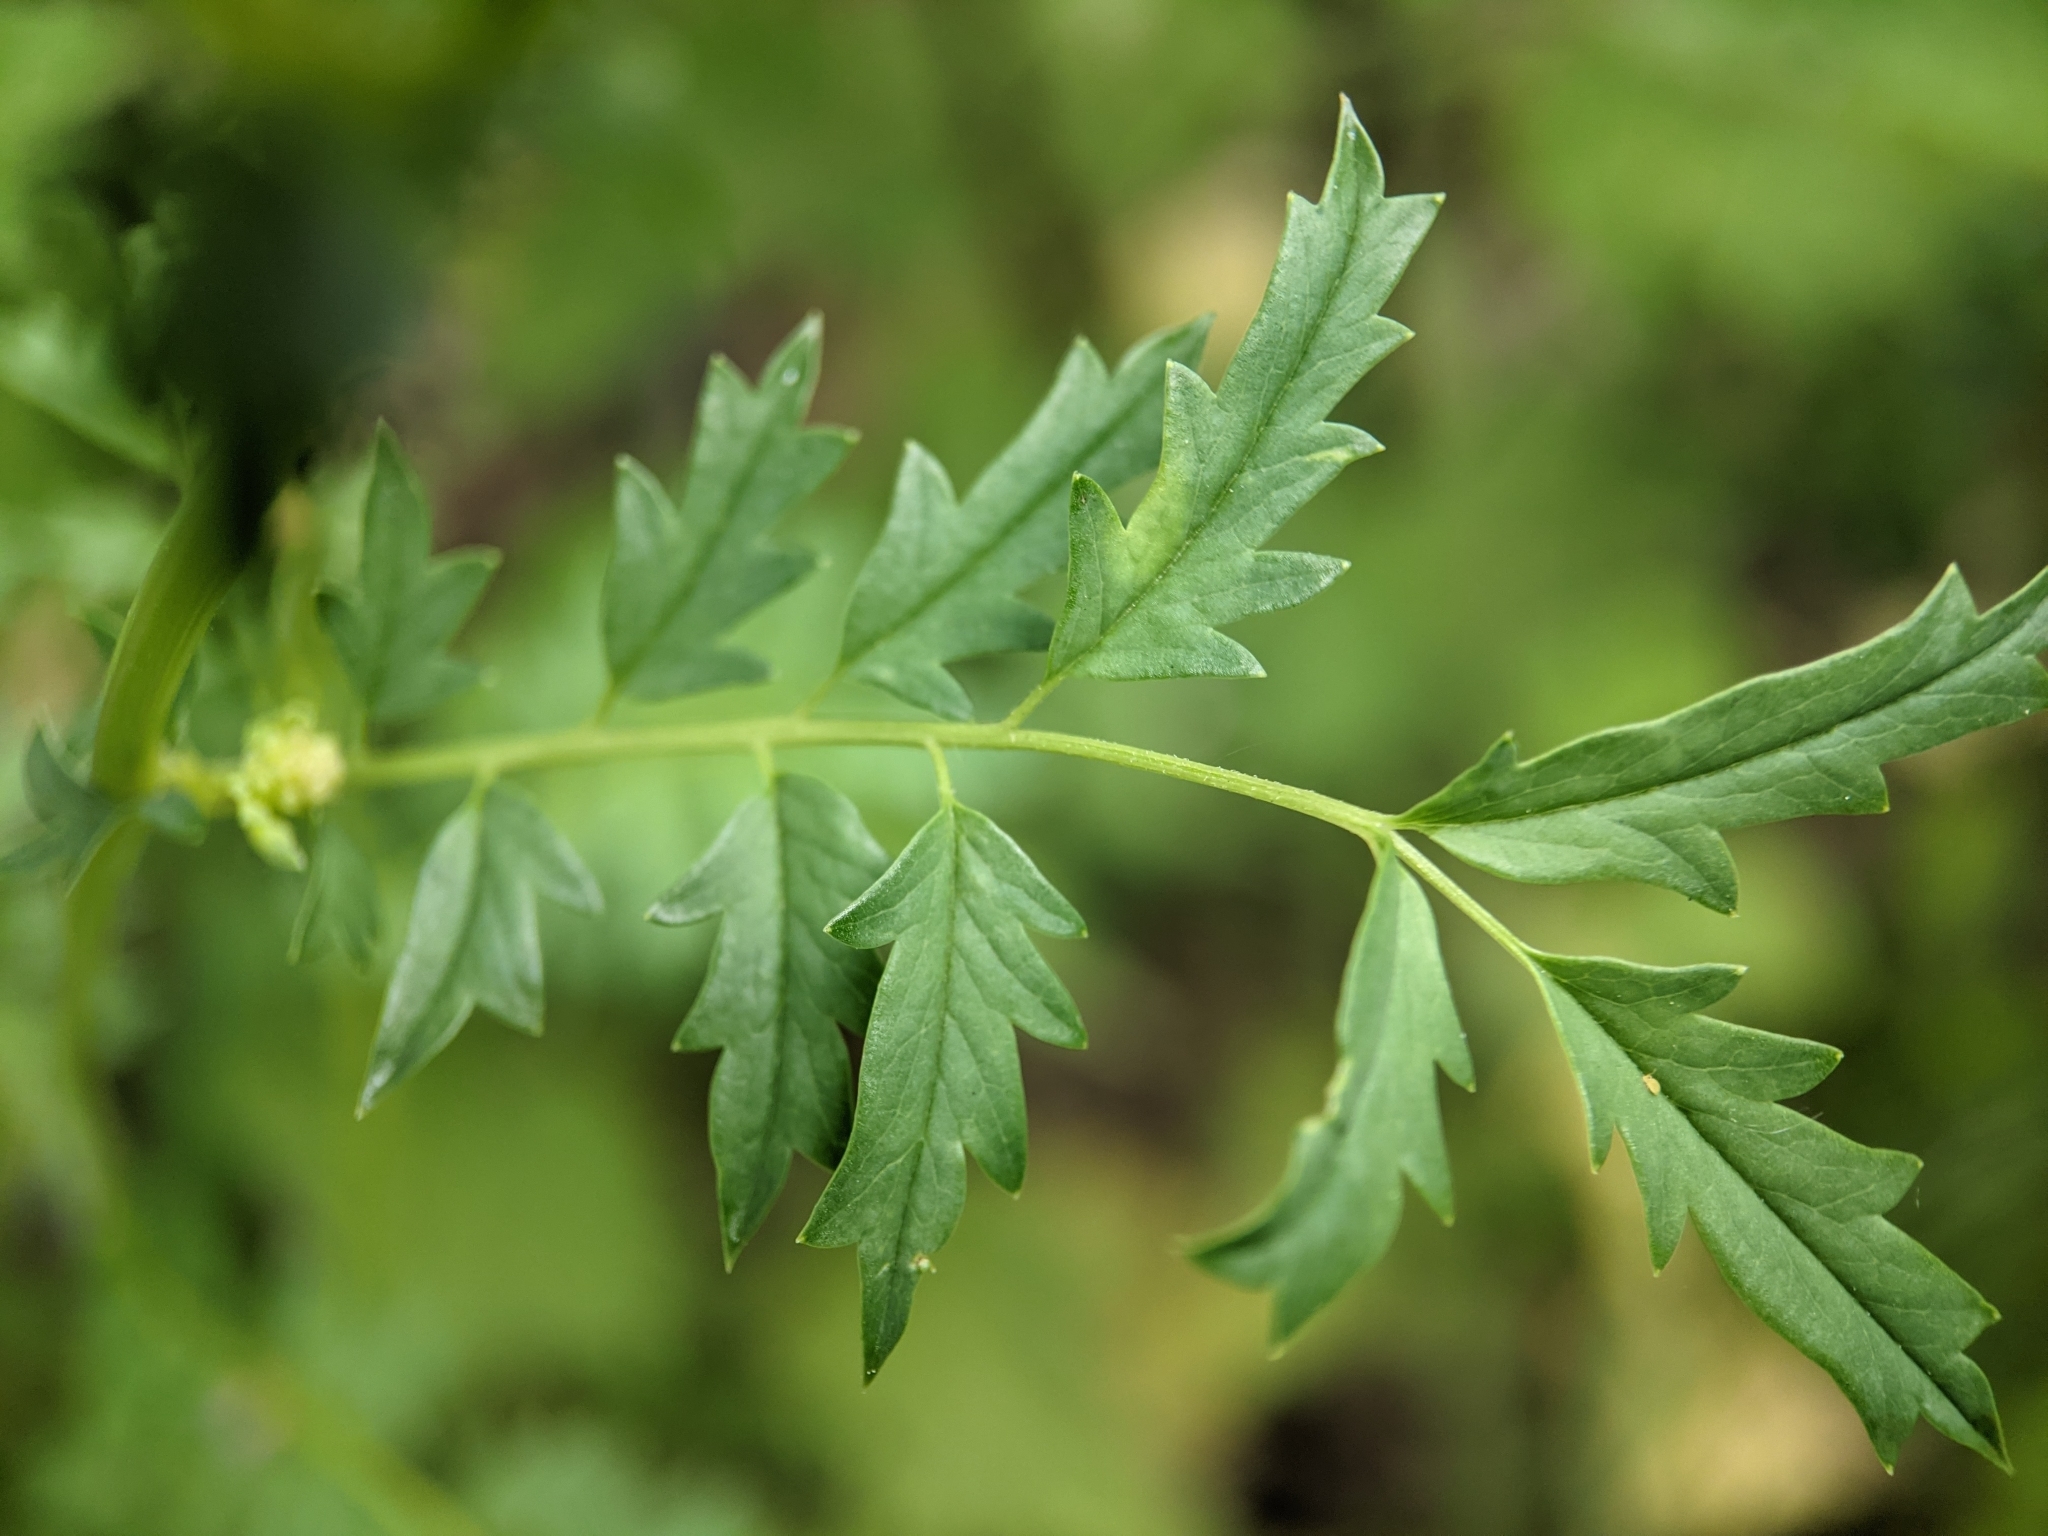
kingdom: Plantae
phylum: Tracheophyta
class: Magnoliopsida
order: Rosales
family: Rosaceae
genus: Poterium
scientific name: Poterium sanguisorba
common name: Salad burnet
